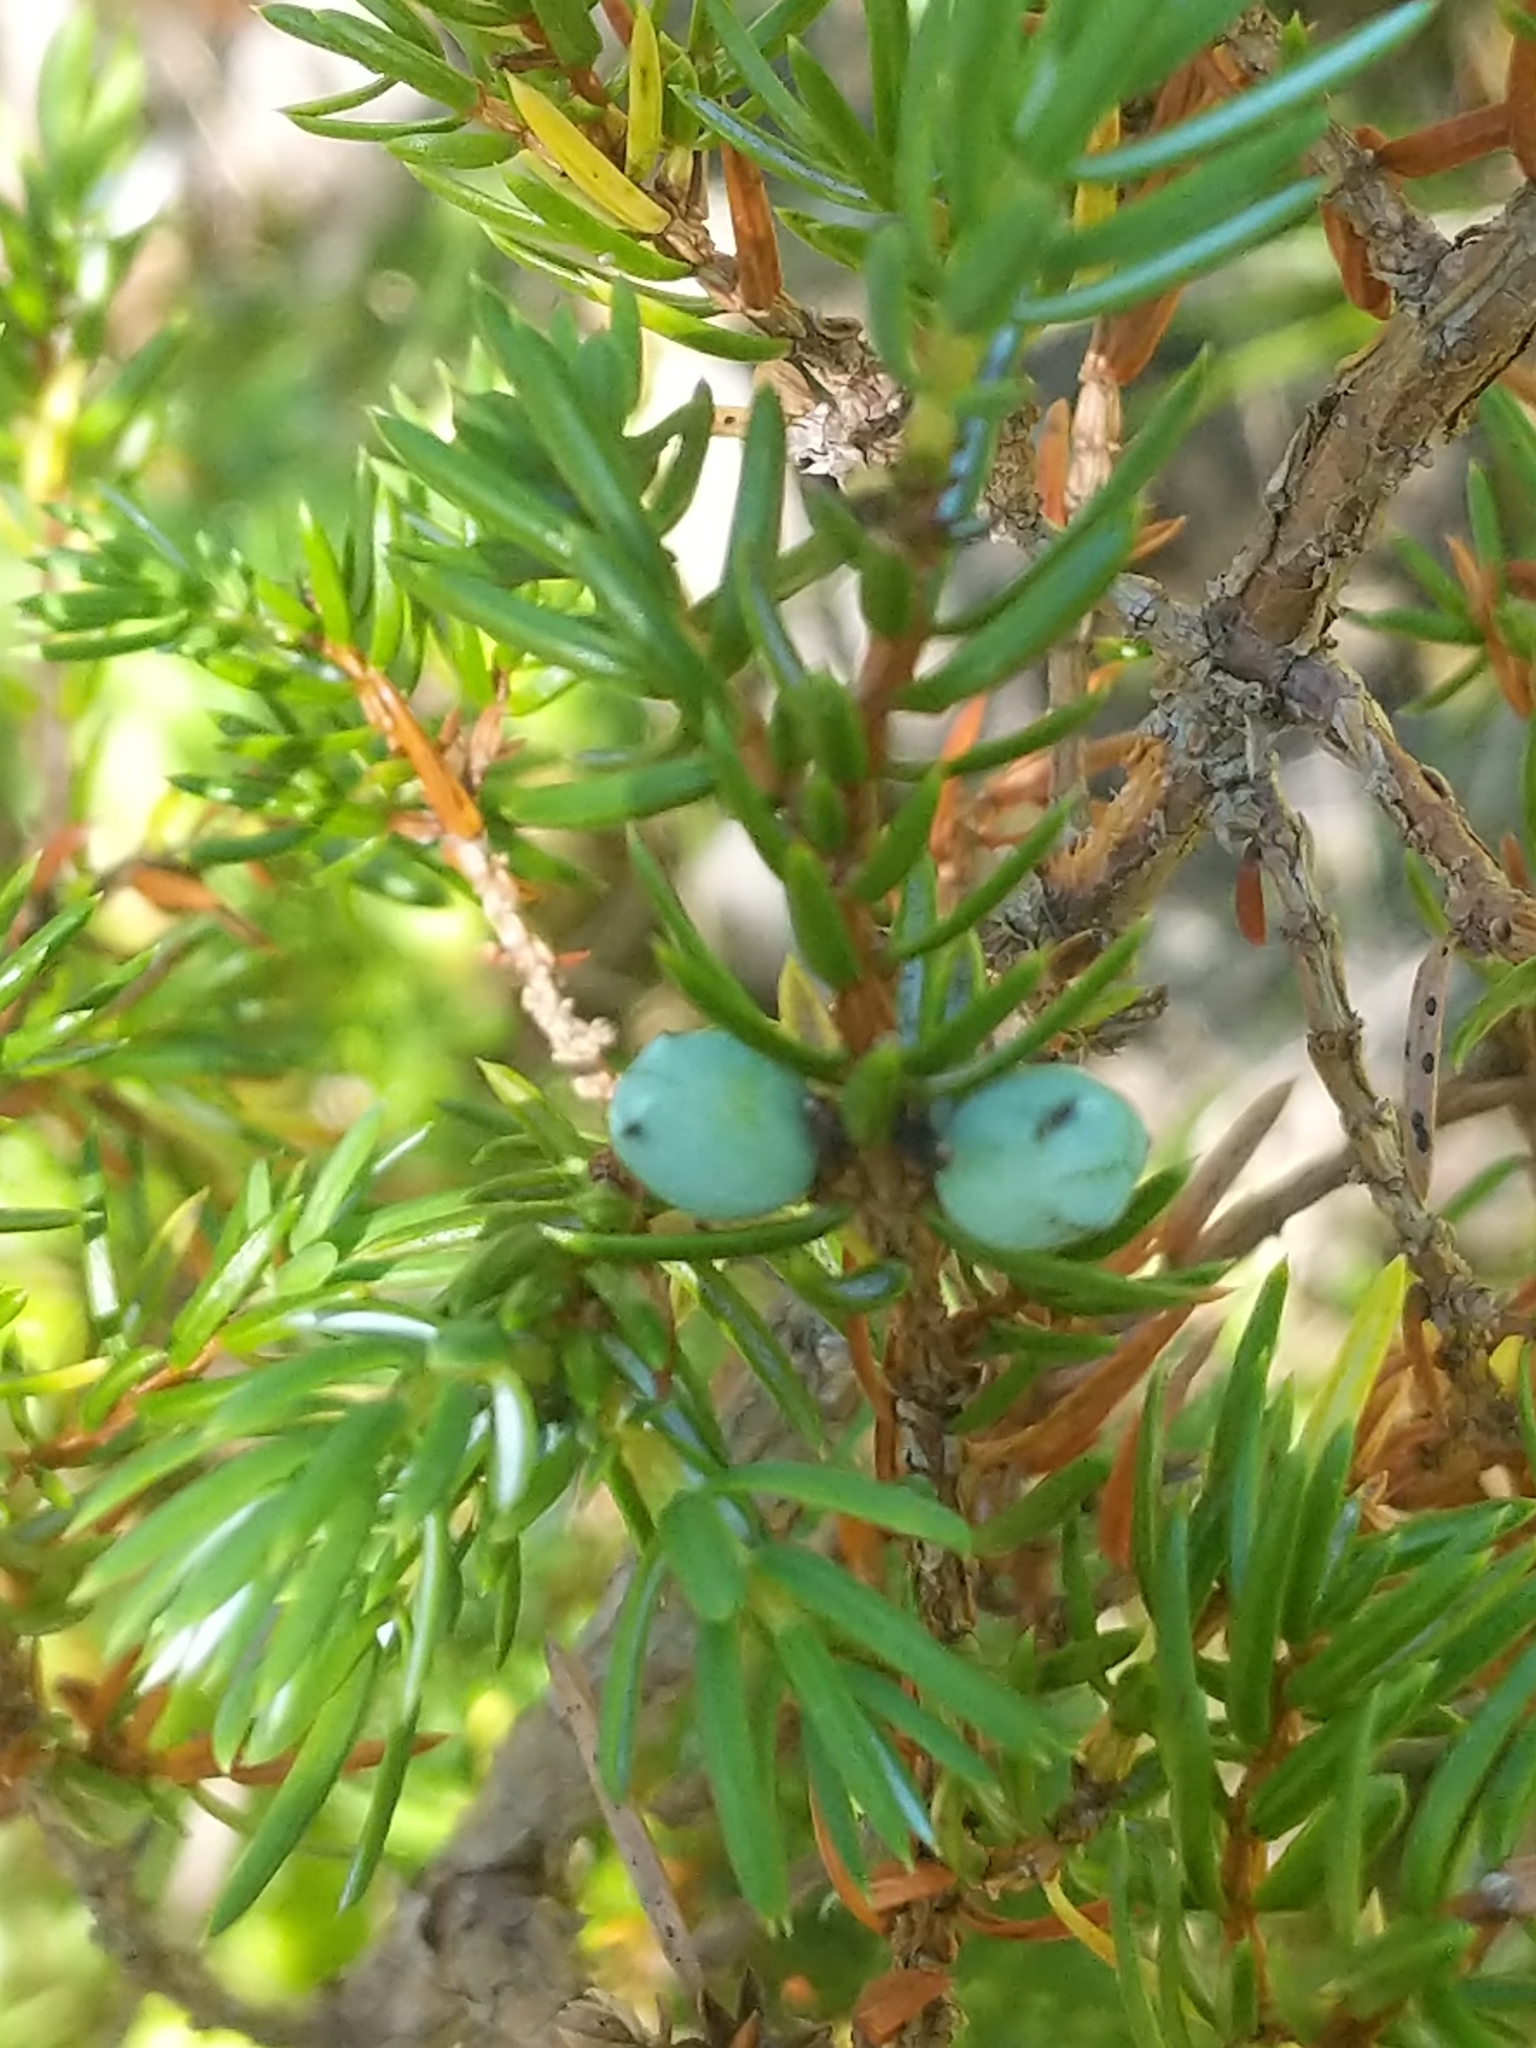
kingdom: Plantae
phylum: Tracheophyta
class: Pinopsida
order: Pinales
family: Cupressaceae
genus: Juniperus
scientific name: Juniperus communis
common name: Common juniper
